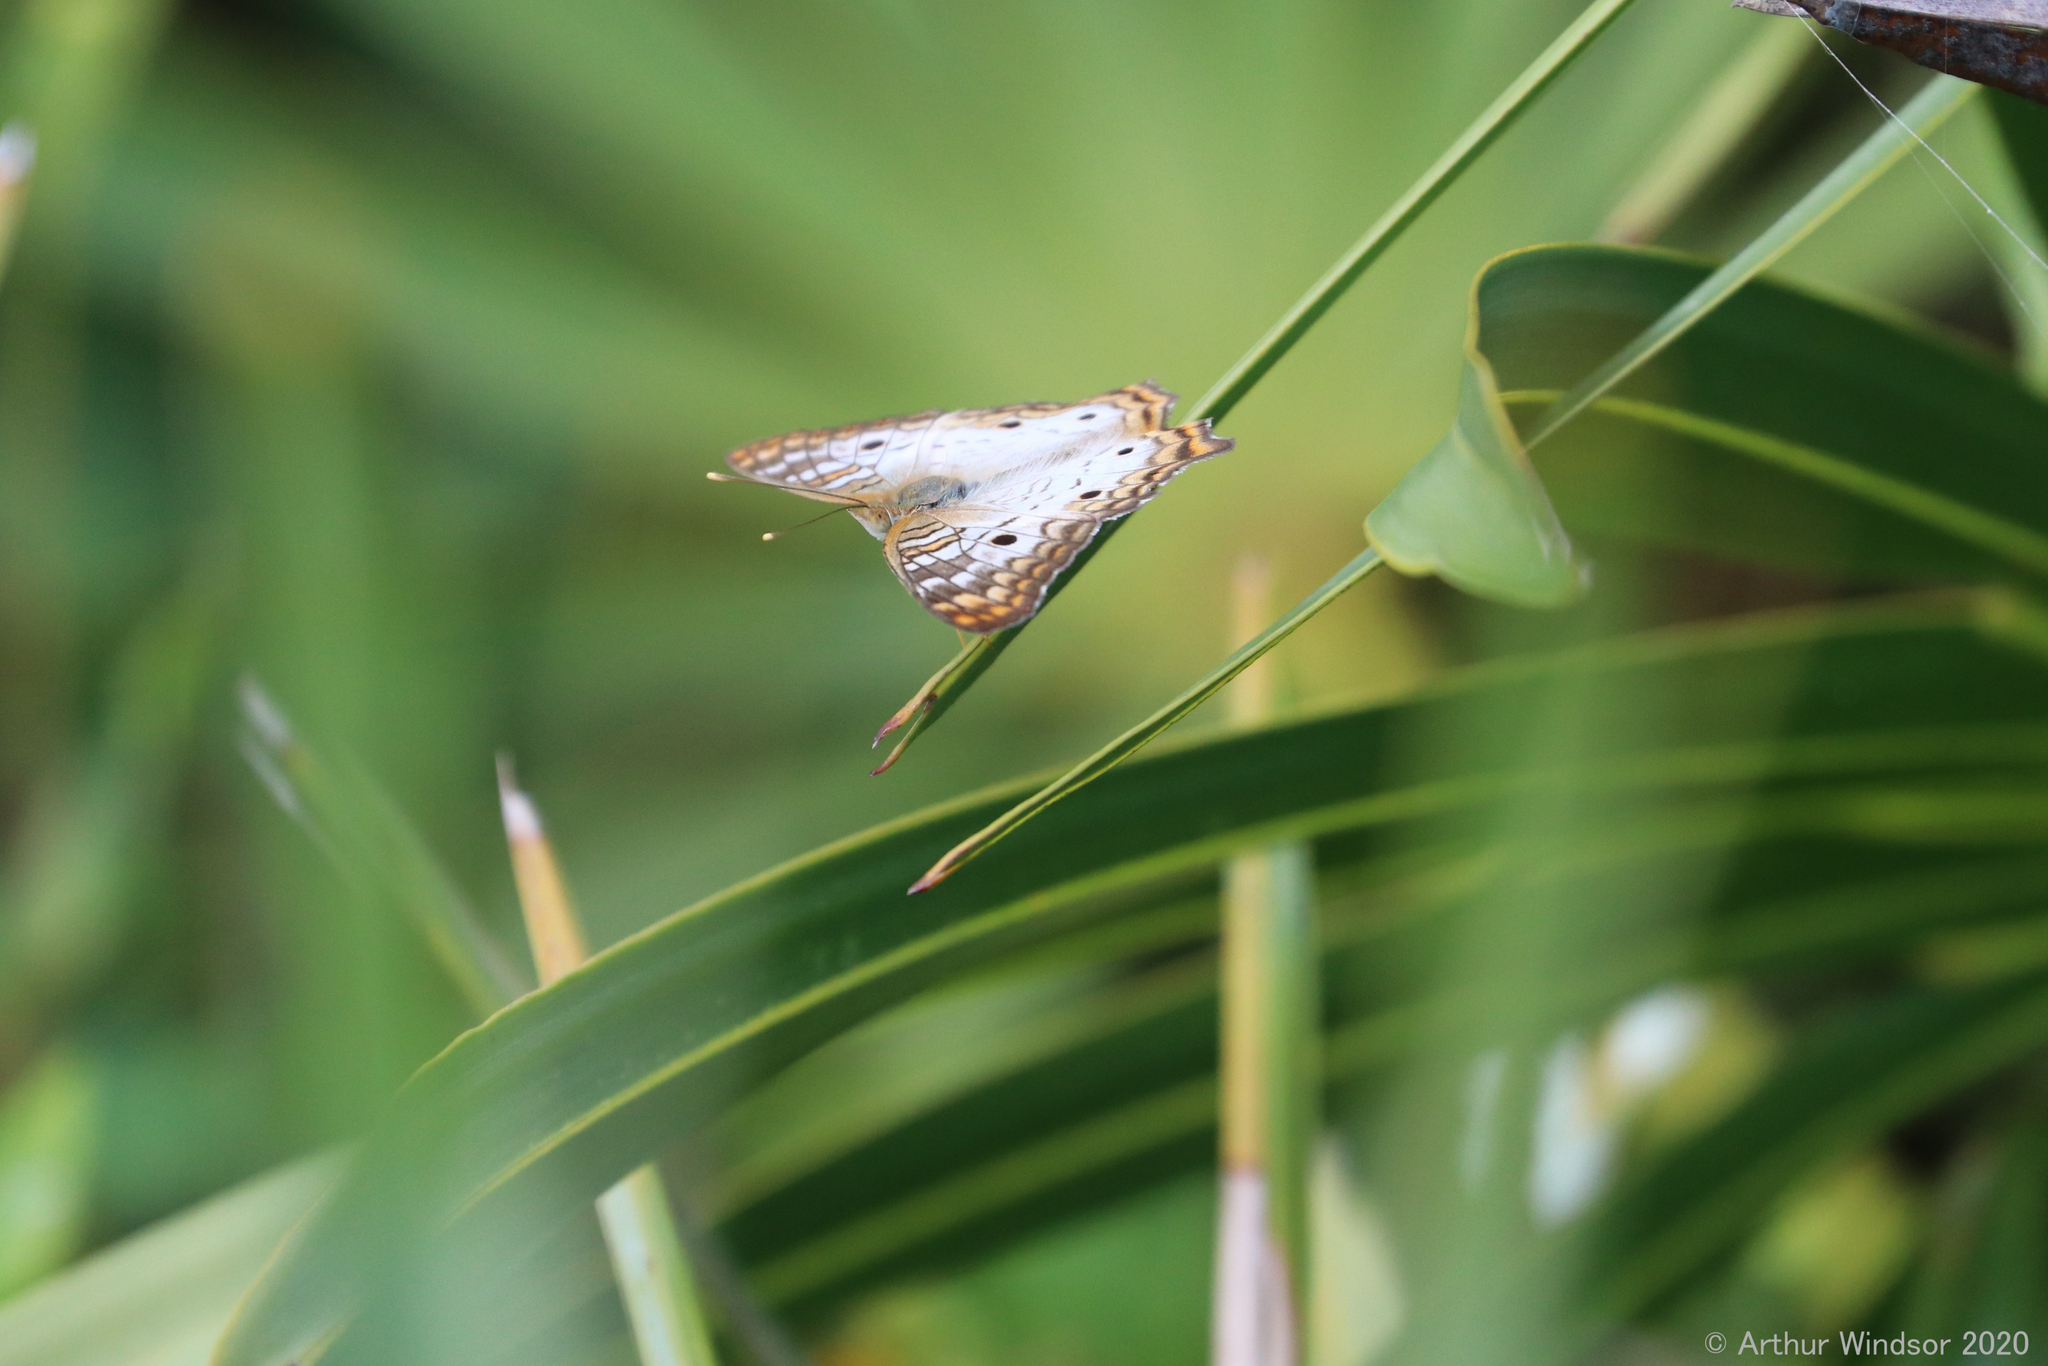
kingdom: Animalia
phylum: Arthropoda
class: Insecta
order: Lepidoptera
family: Nymphalidae
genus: Anartia
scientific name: Anartia jatrophae
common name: White peacock
